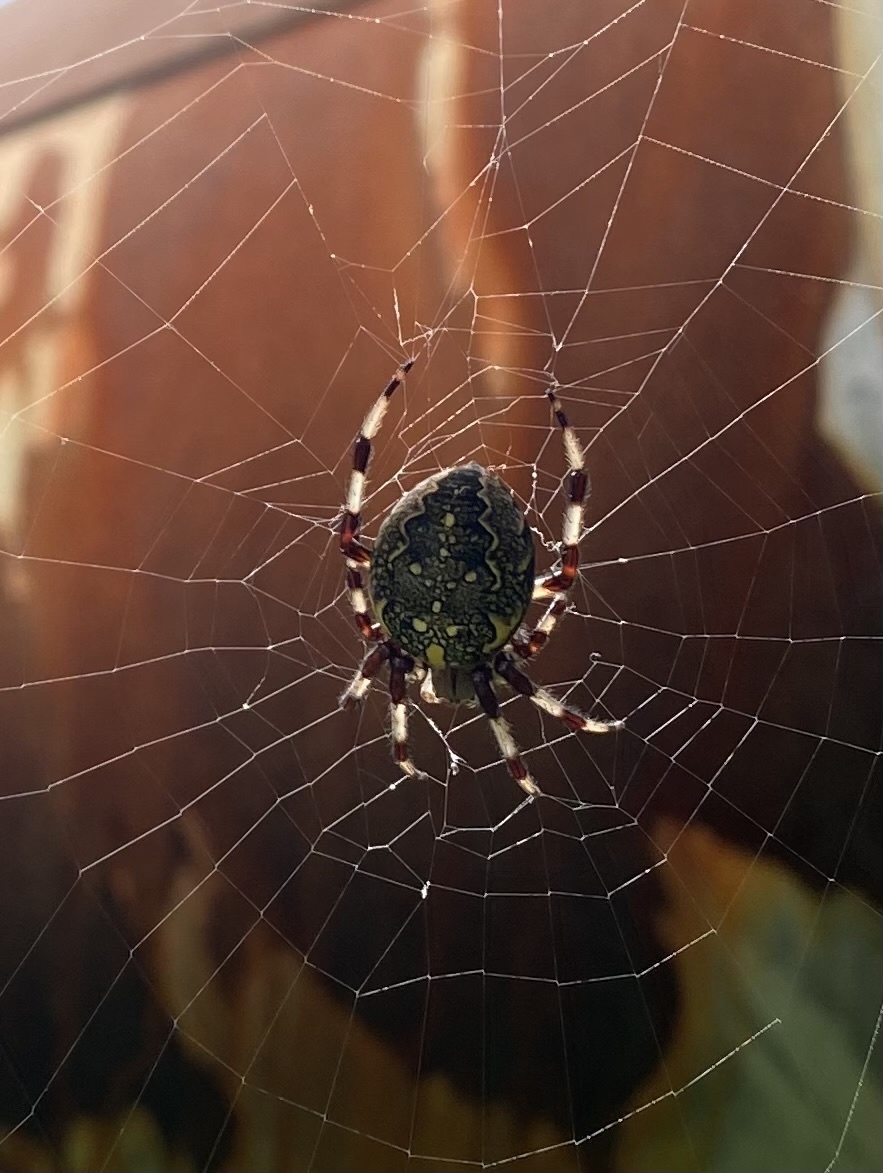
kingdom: Animalia
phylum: Arthropoda
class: Arachnida
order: Araneae
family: Araneidae
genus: Araneus
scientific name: Araneus marmoreus
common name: Marbled orbweaver
